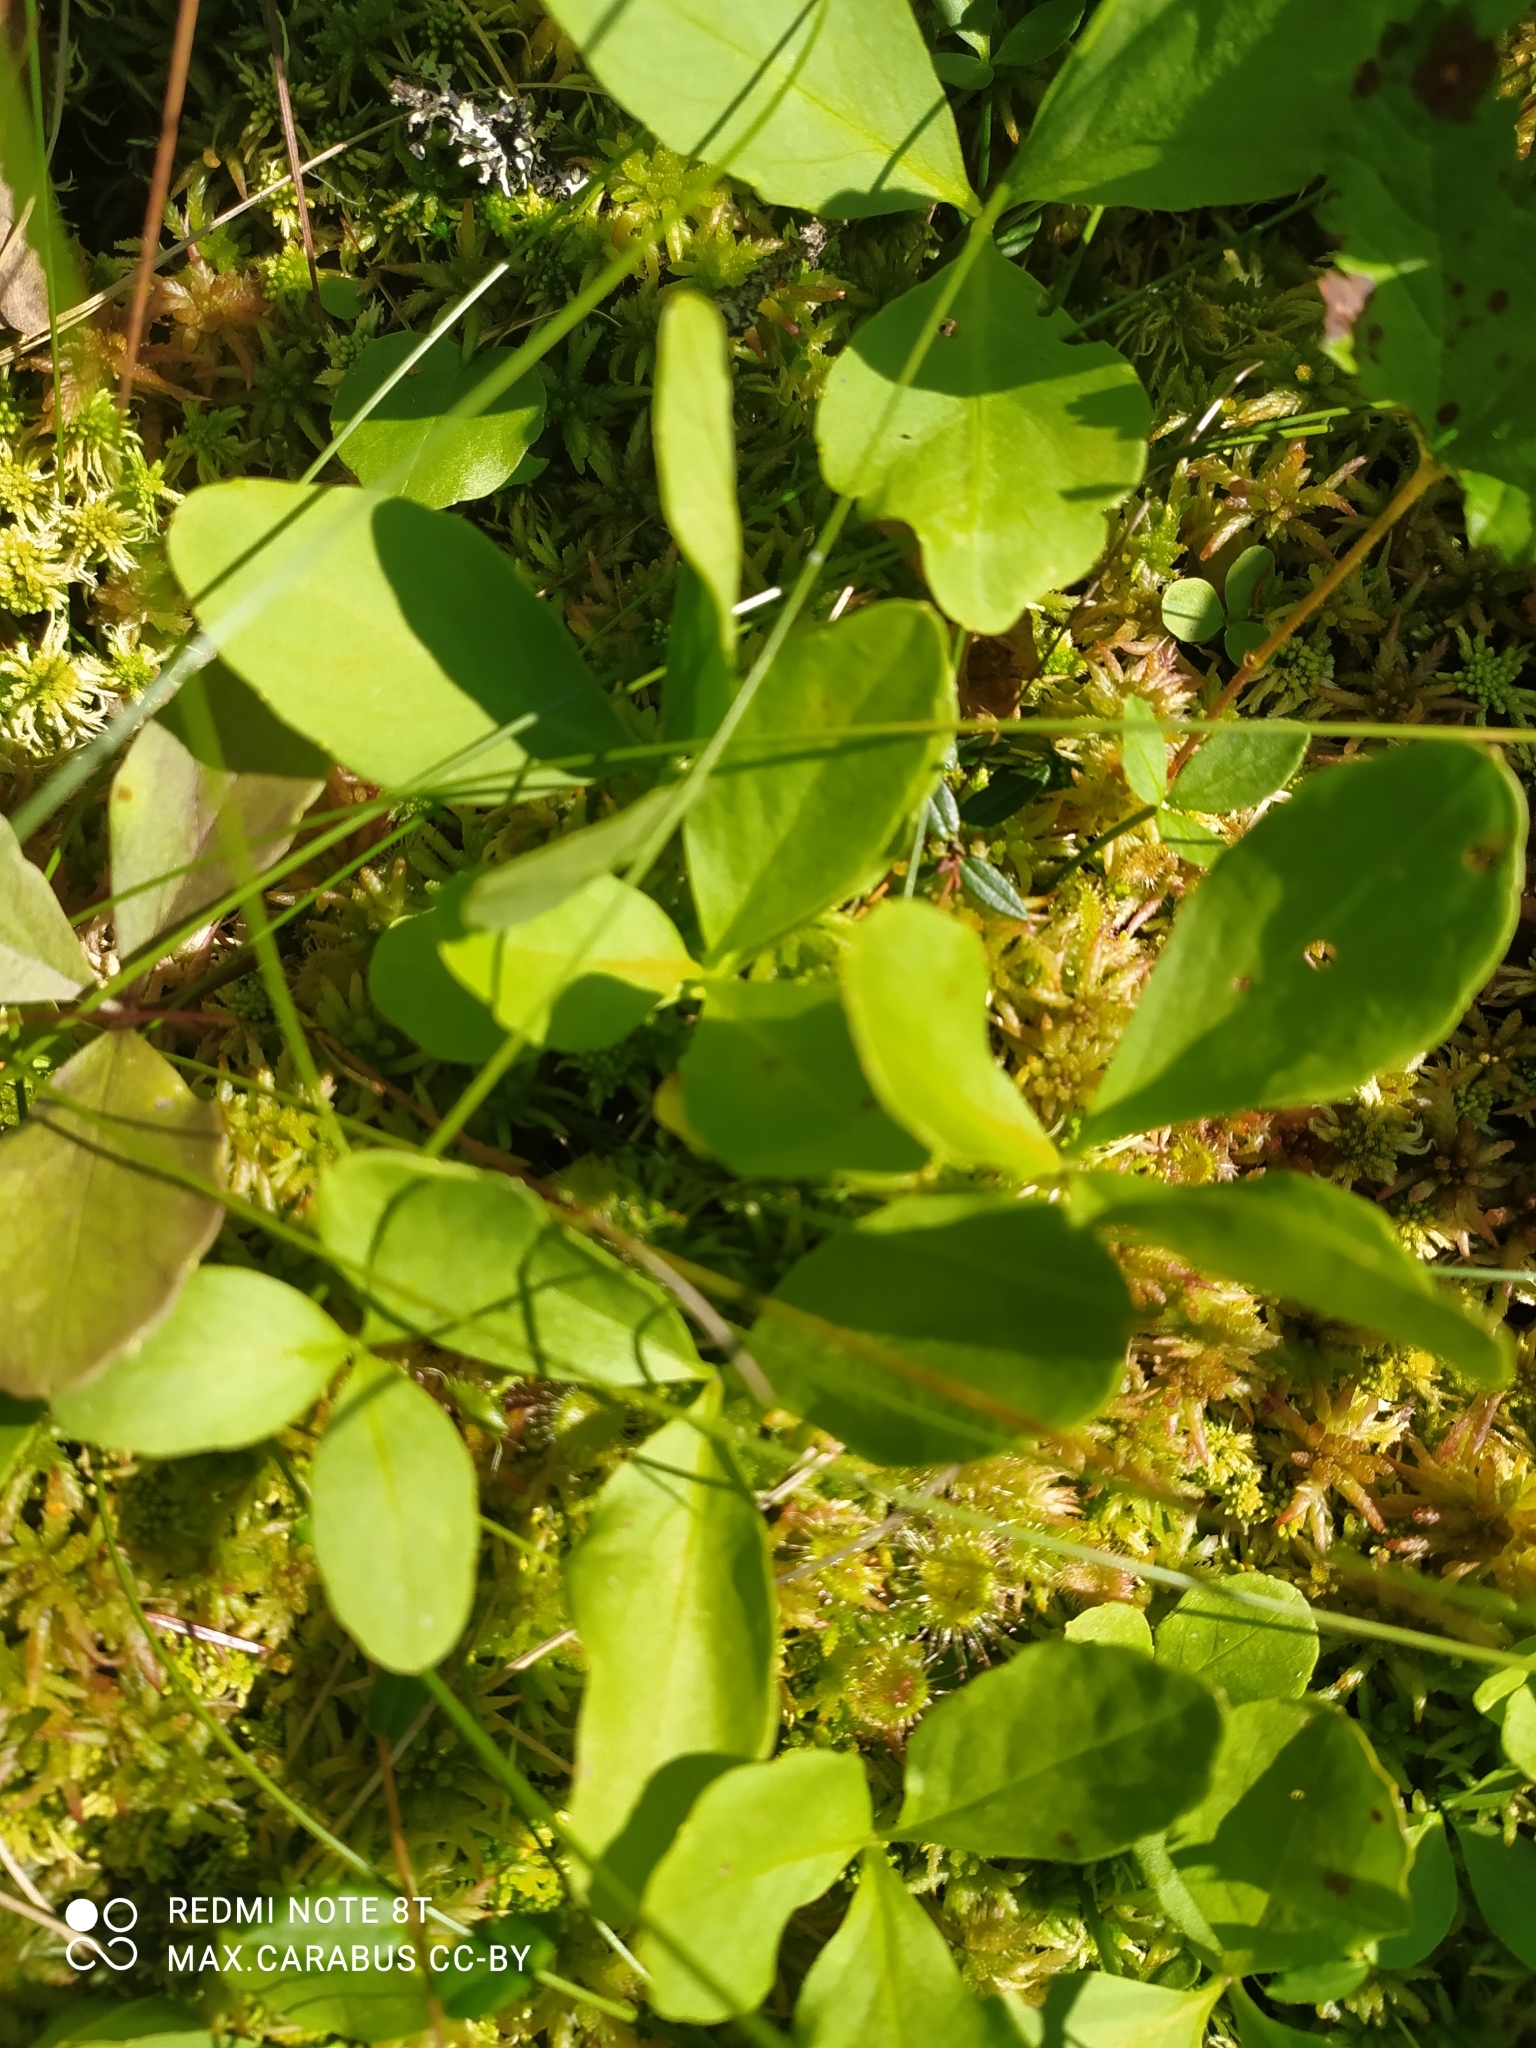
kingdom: Plantae
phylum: Tracheophyta
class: Magnoliopsida
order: Asterales
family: Menyanthaceae
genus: Menyanthes
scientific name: Menyanthes trifoliata
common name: Bogbean
